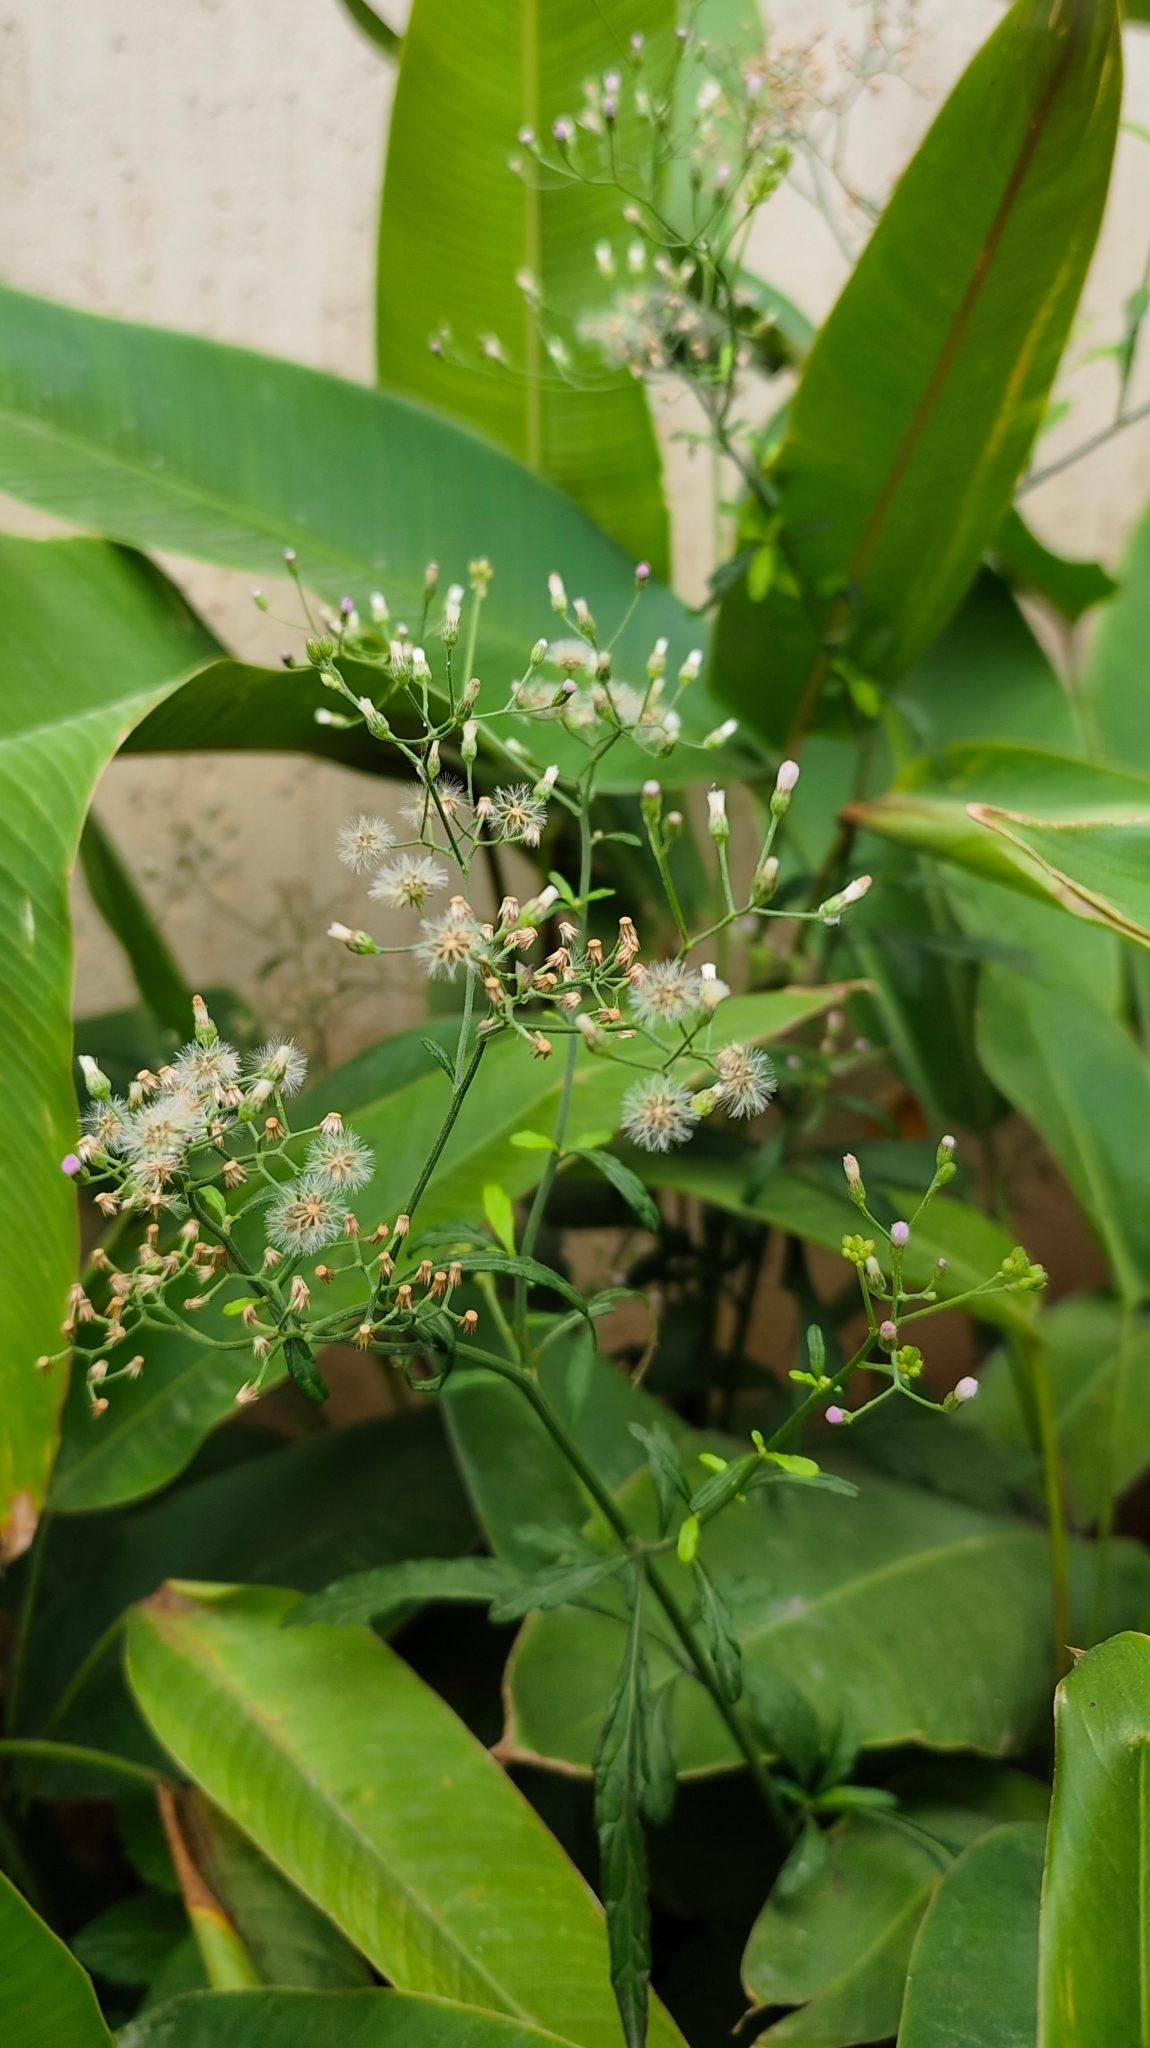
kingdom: Plantae
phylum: Tracheophyta
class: Magnoliopsida
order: Asterales
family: Asteraceae
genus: Cyanthillium
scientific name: Cyanthillium cinereum
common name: Little ironweed
